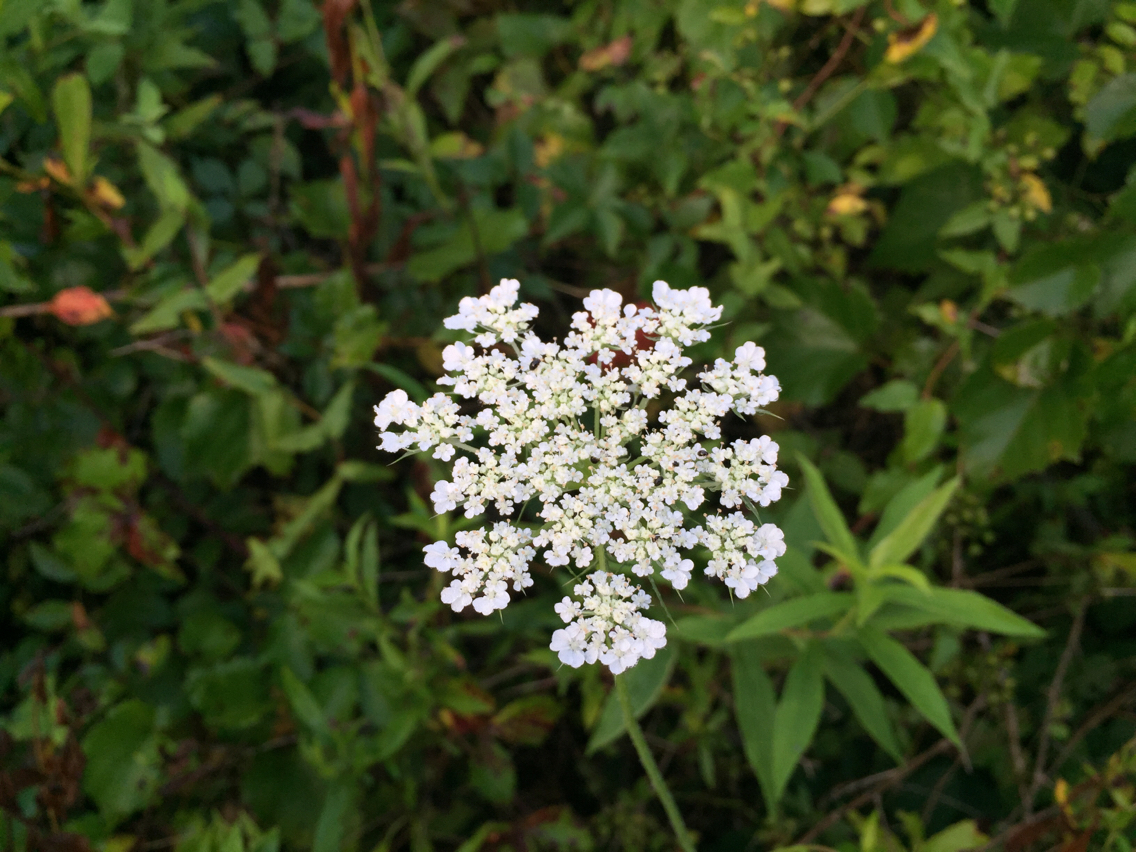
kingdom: Plantae
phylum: Tracheophyta
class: Magnoliopsida
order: Apiales
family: Apiaceae
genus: Daucus
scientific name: Daucus carota
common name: Wild carrot
